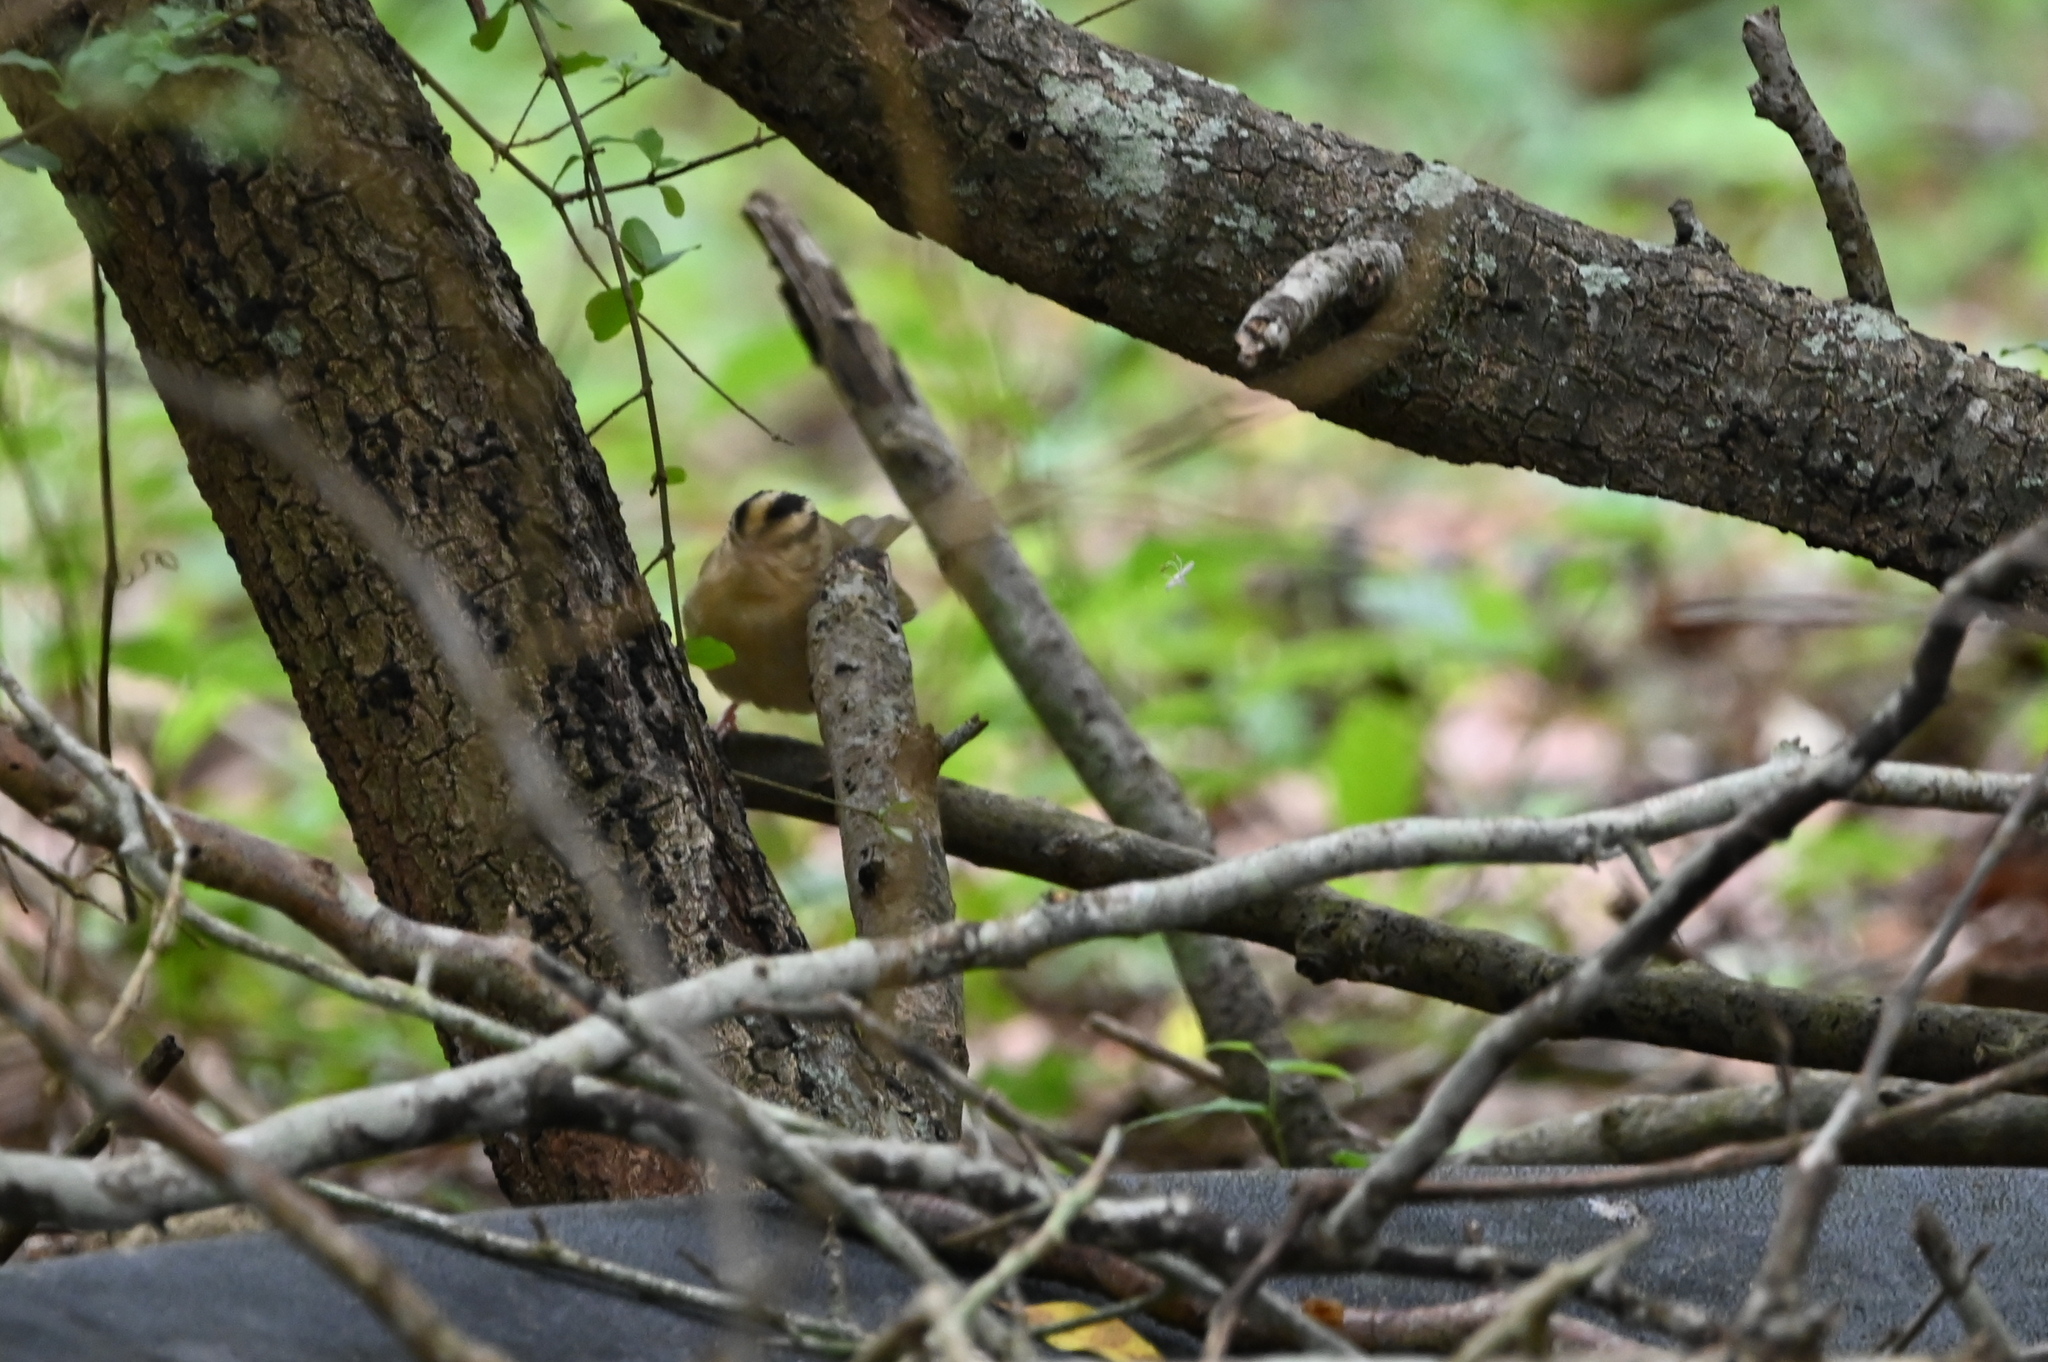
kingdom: Animalia
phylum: Chordata
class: Aves
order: Passeriformes
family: Parulidae
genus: Helmitheros
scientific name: Helmitheros vermivorum
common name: Worm-eating warbler
